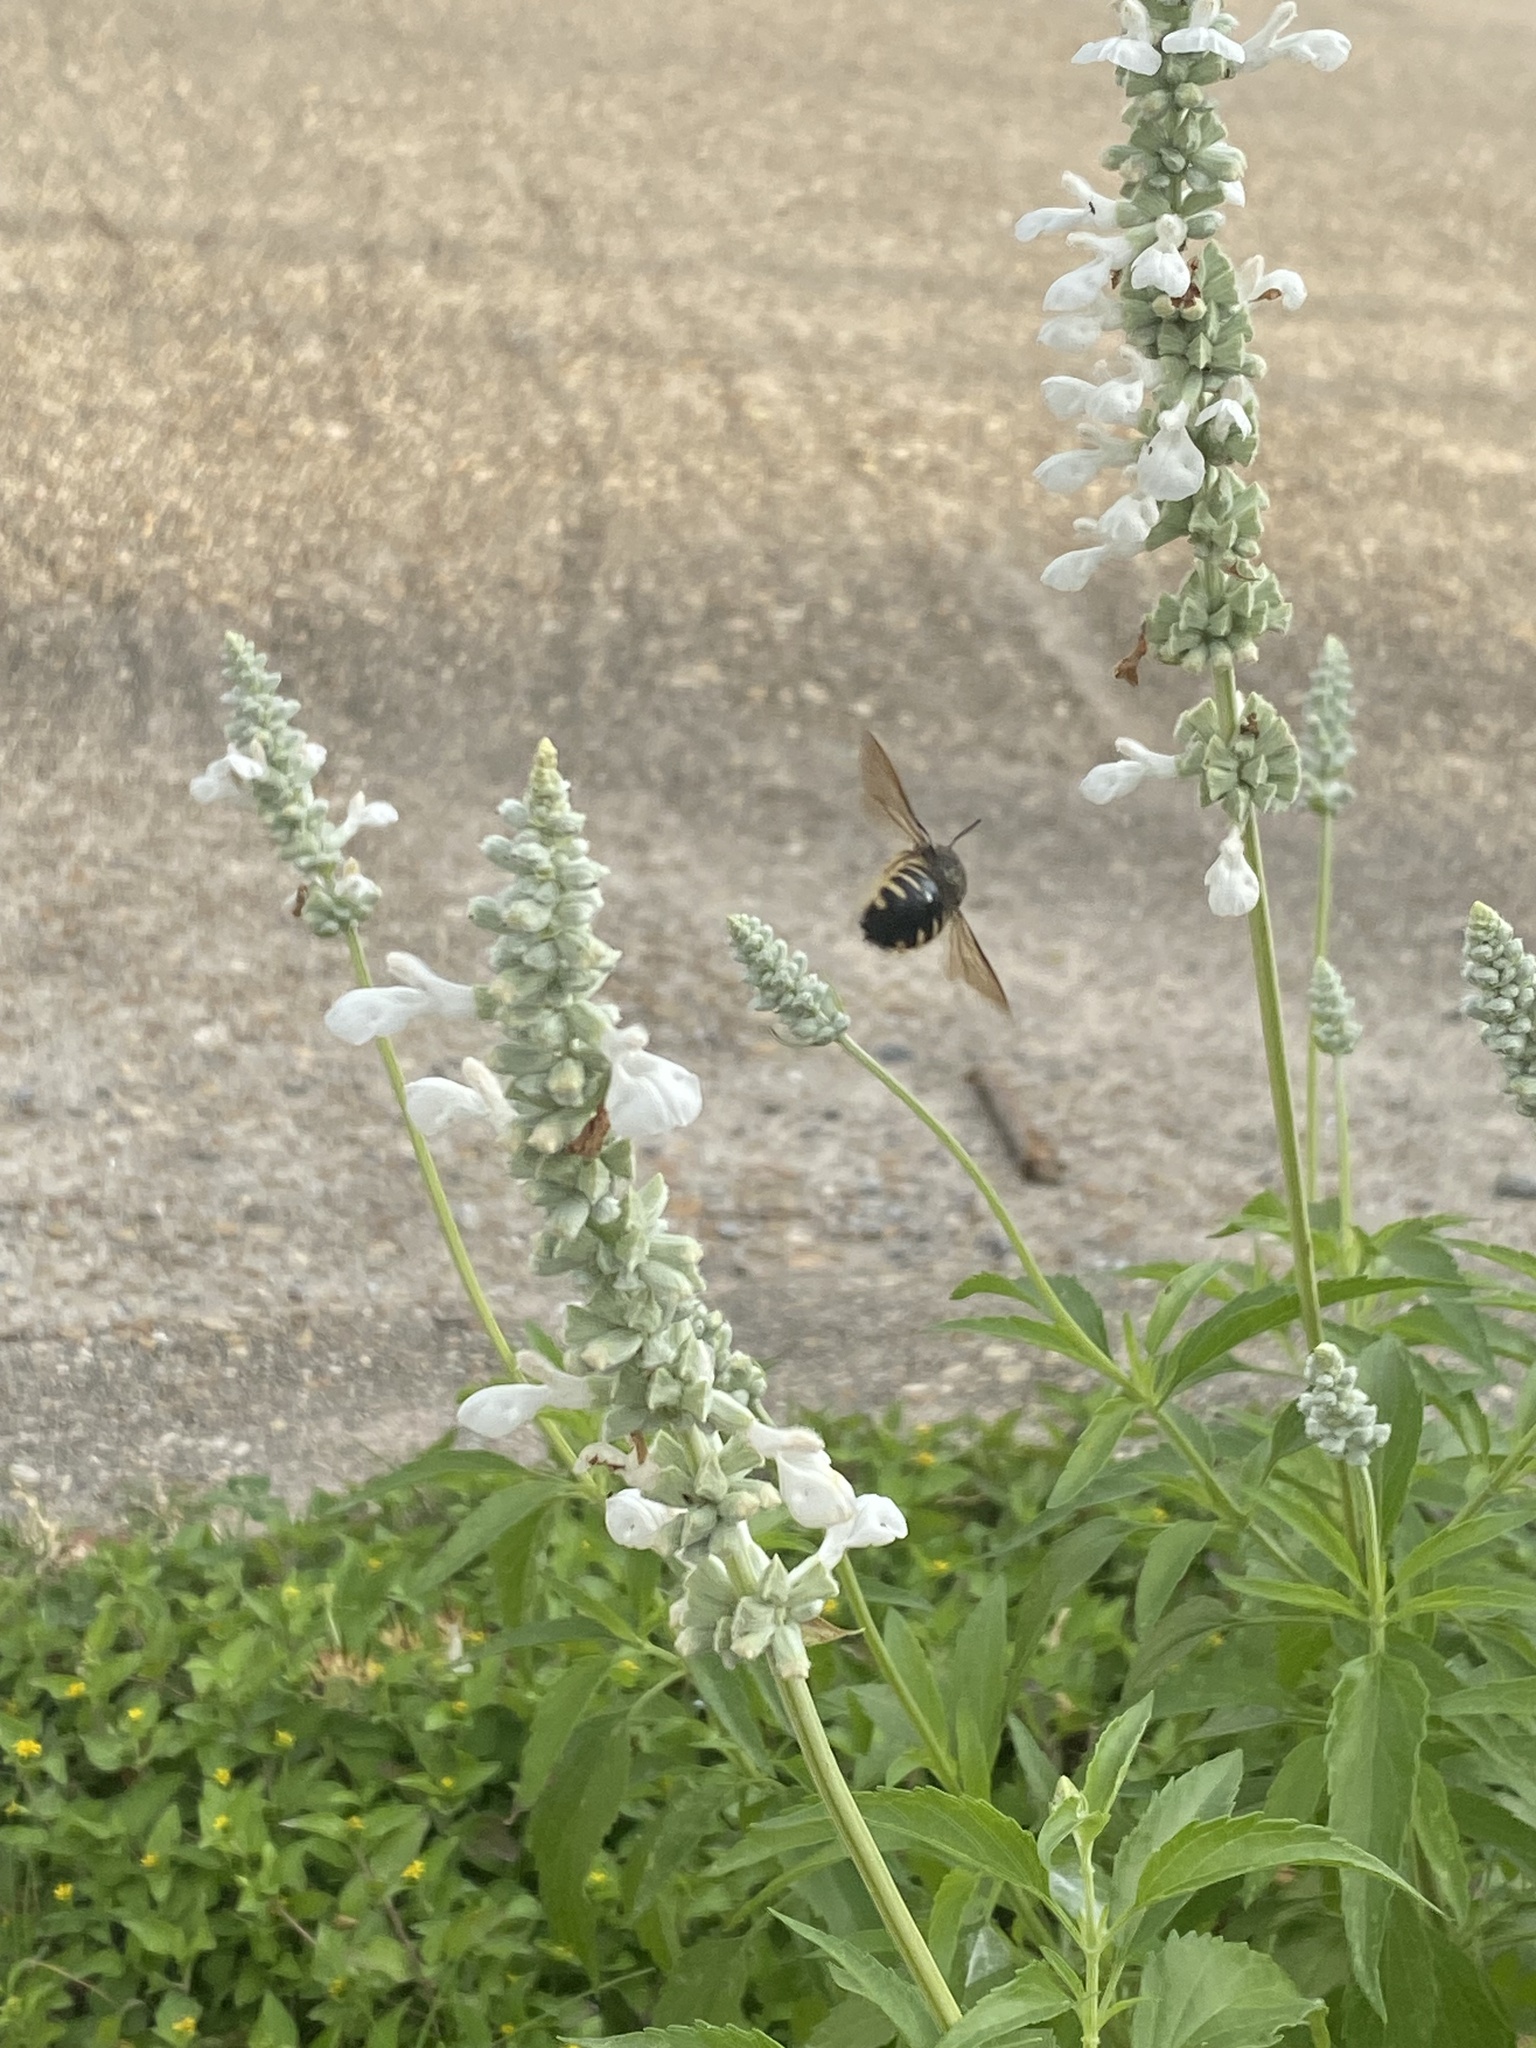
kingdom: Animalia
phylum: Arthropoda
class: Insecta
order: Hymenoptera
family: Apidae
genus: Xylocopa
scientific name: Xylocopa tabaniformis
